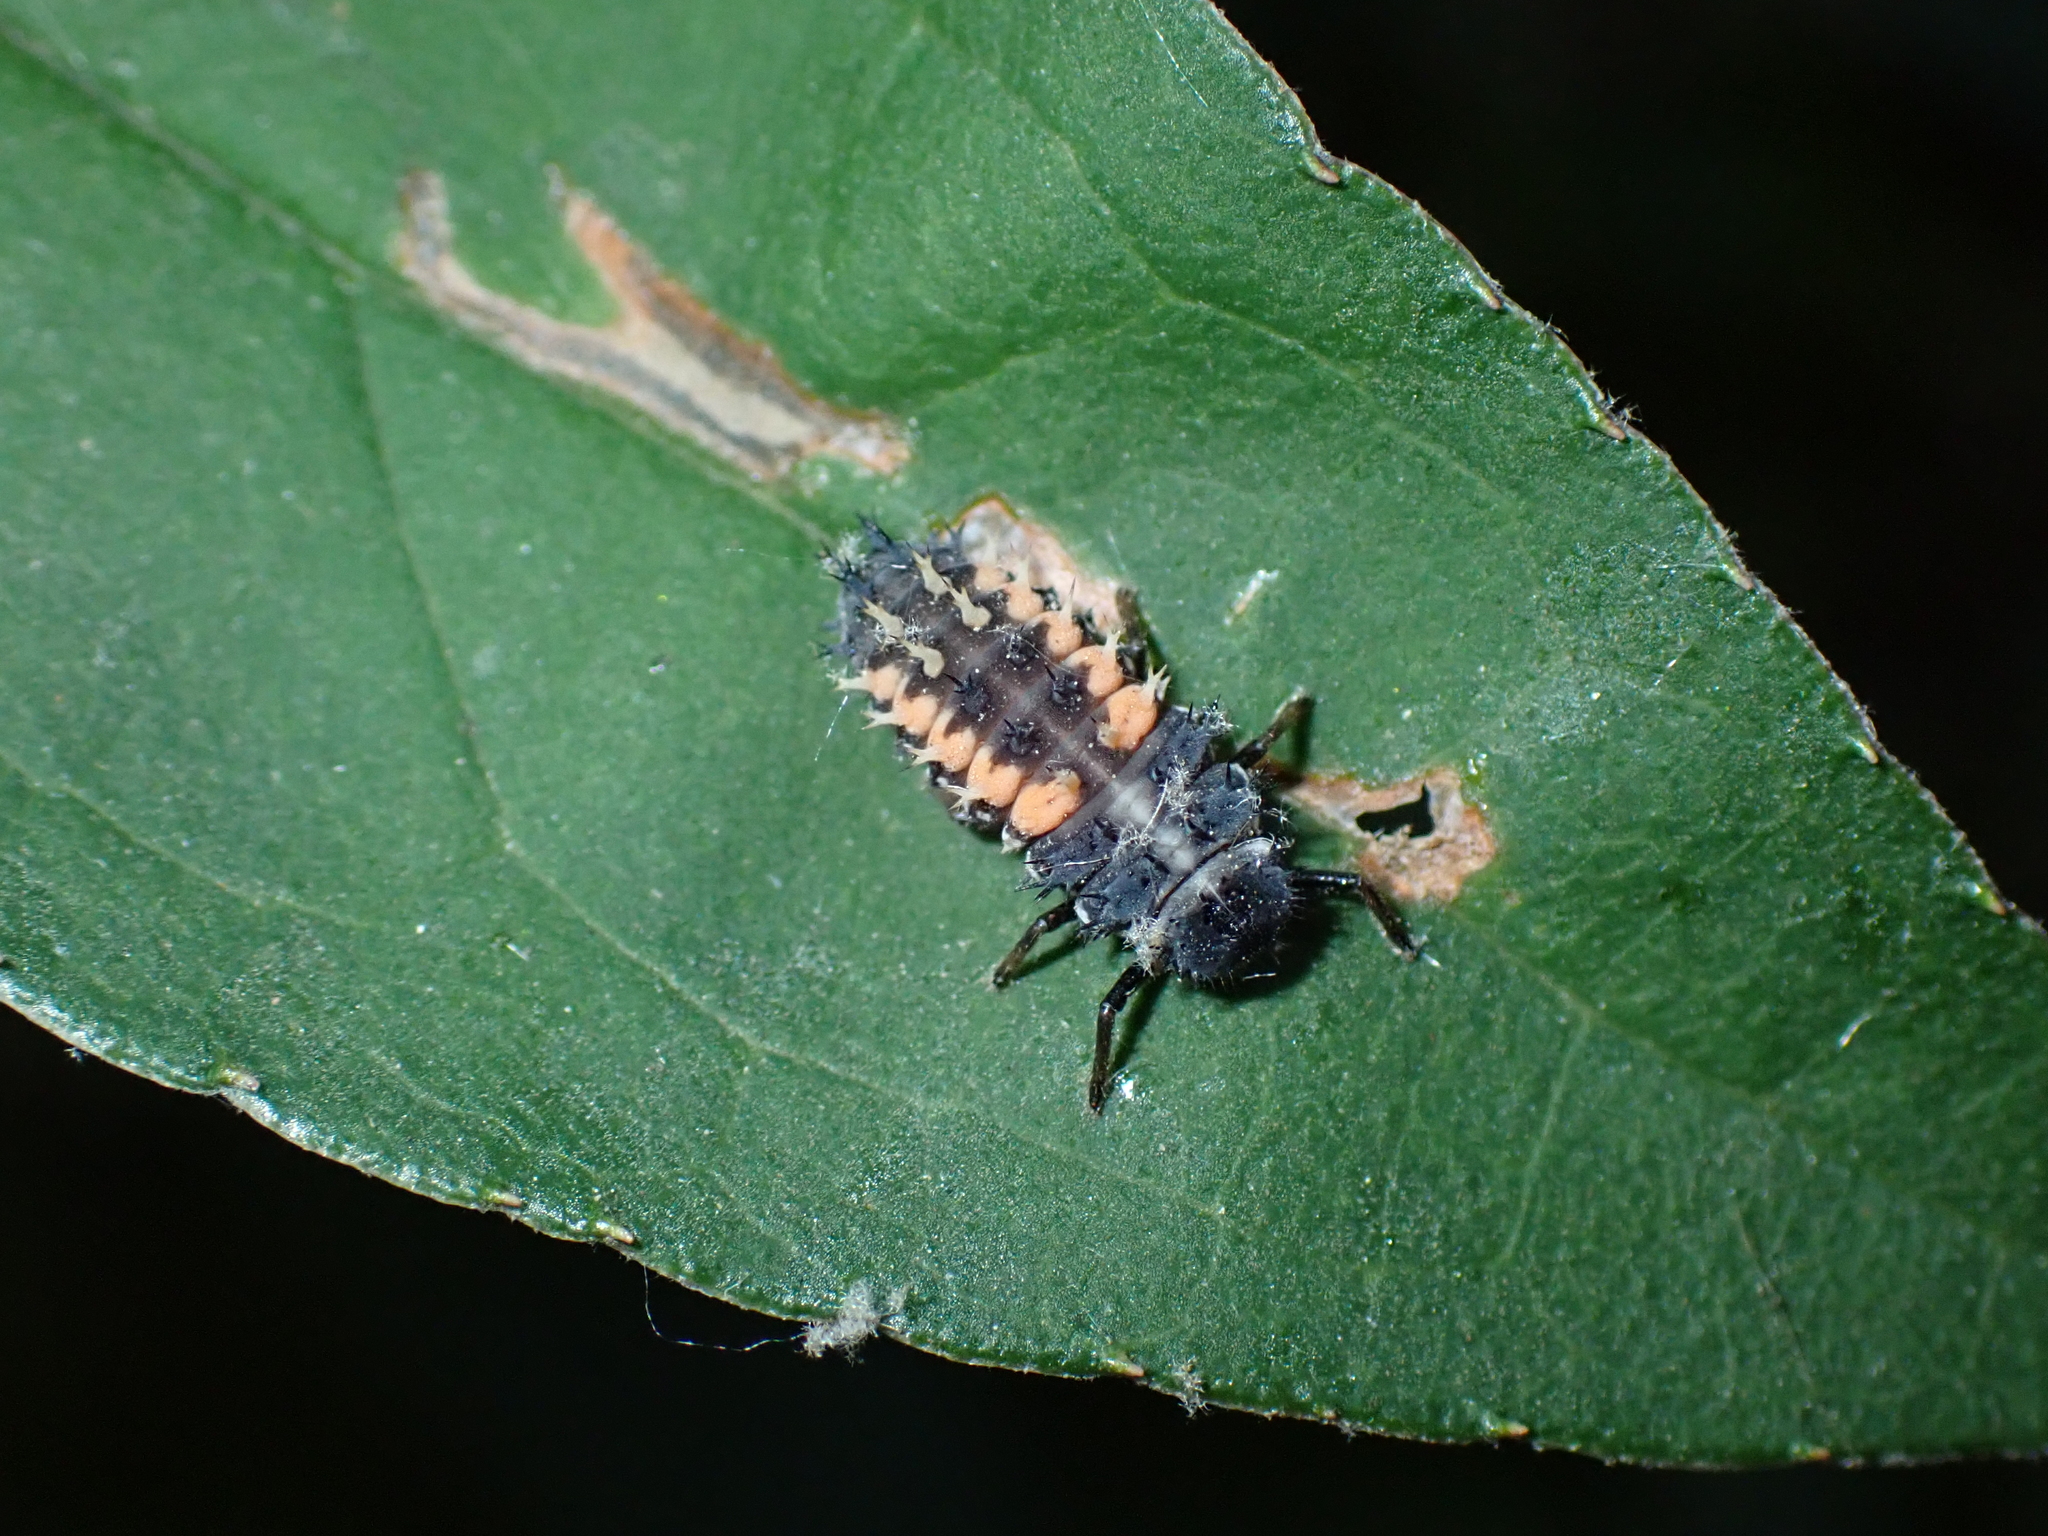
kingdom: Animalia
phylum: Arthropoda
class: Insecta
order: Coleoptera
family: Coccinellidae
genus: Harmonia
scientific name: Harmonia axyridis
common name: Harlequin ladybird
